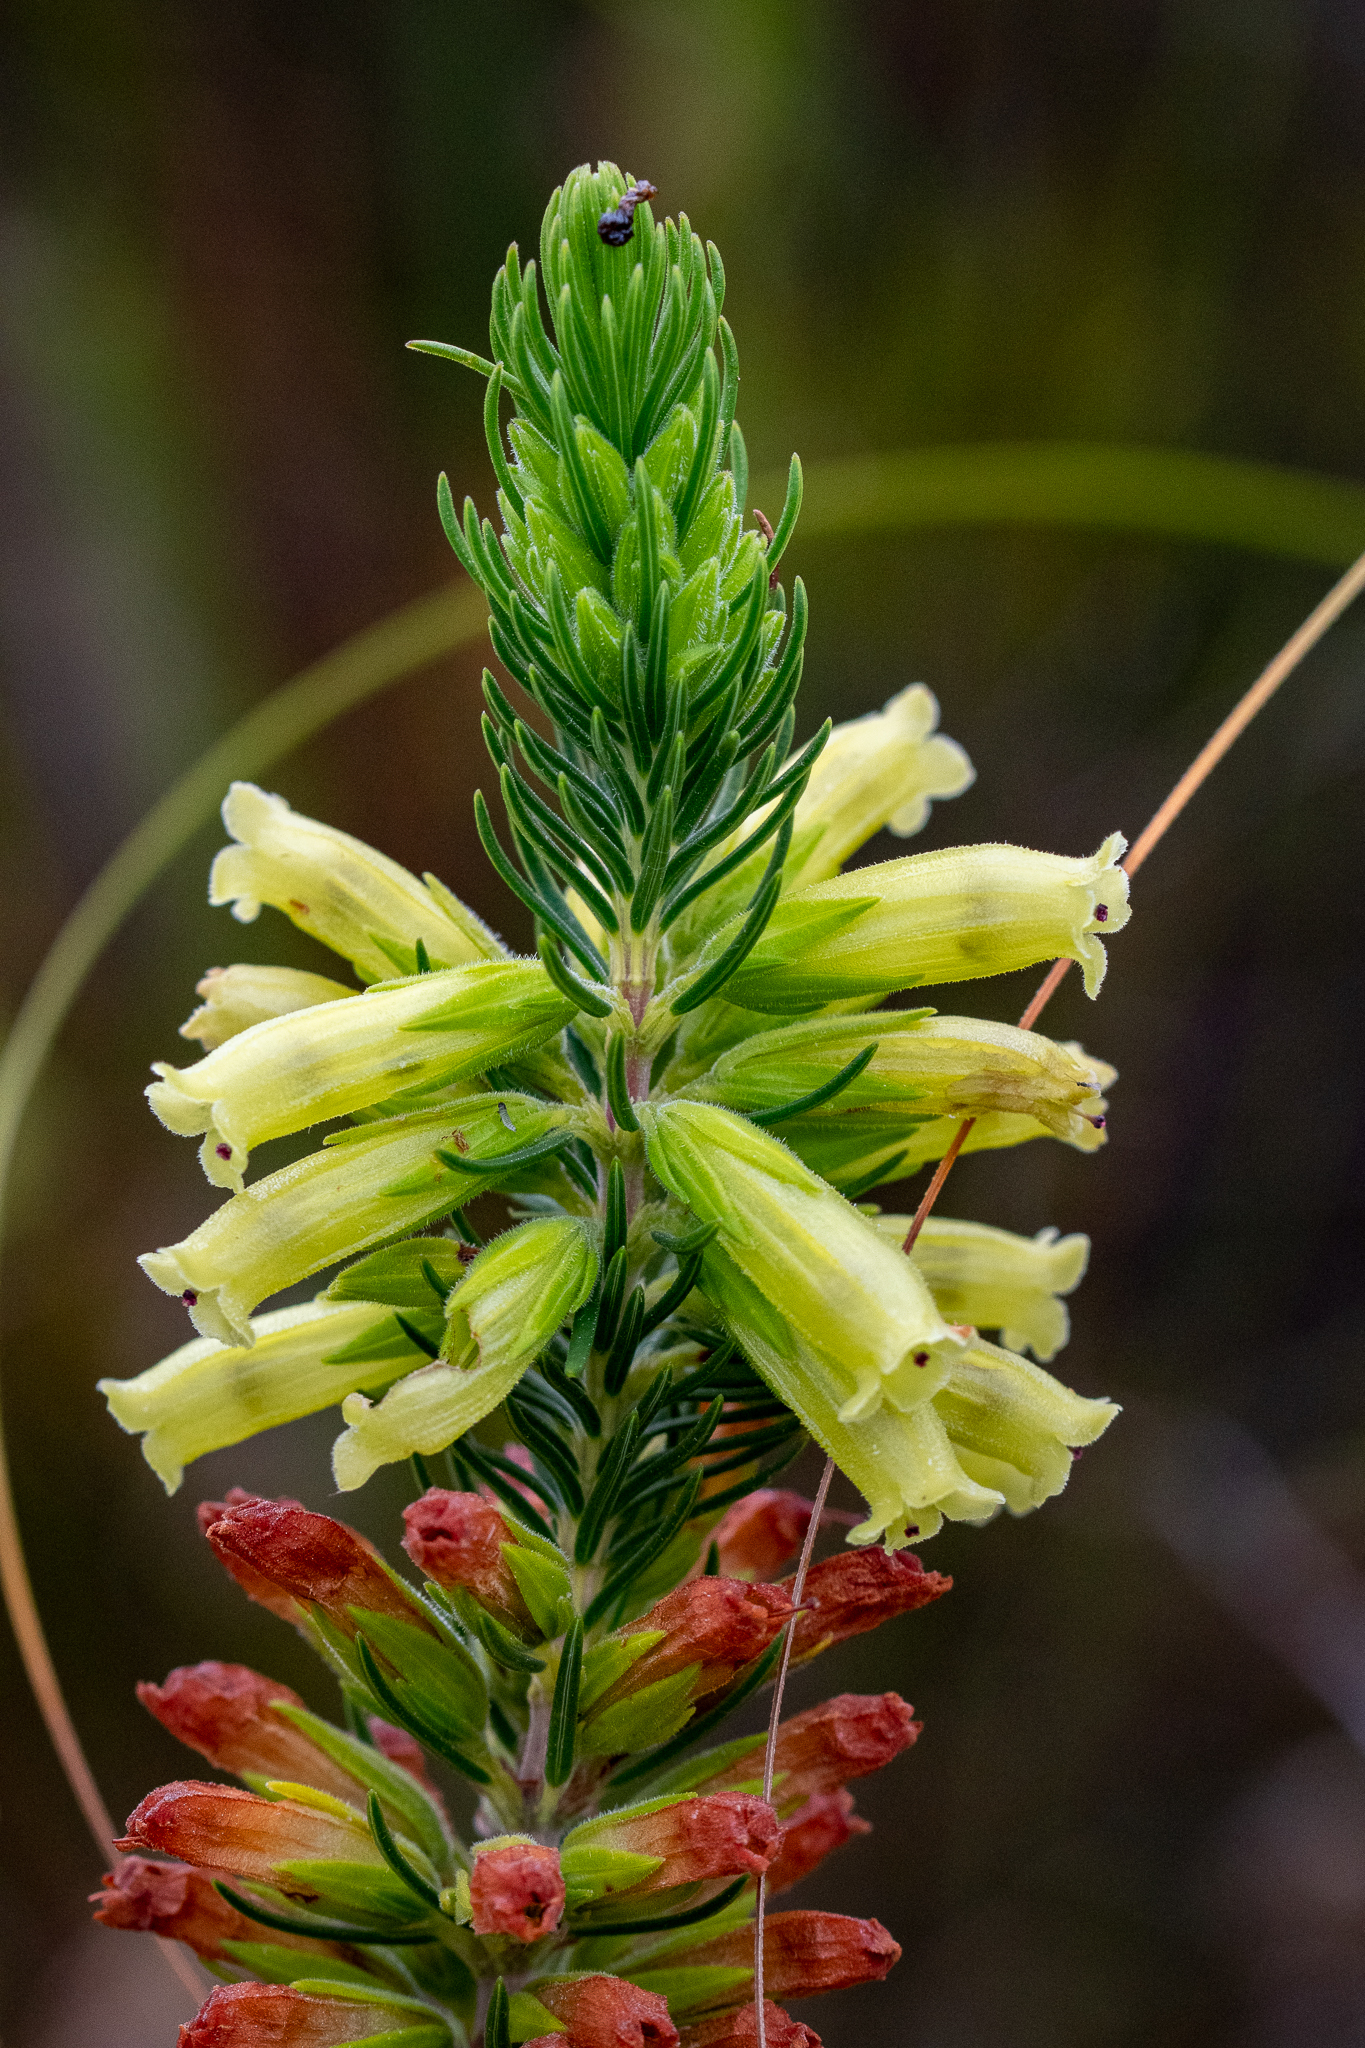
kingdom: Plantae
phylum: Tracheophyta
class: Magnoliopsida
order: Ericales
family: Ericaceae
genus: Erica
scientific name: Erica viscaria
